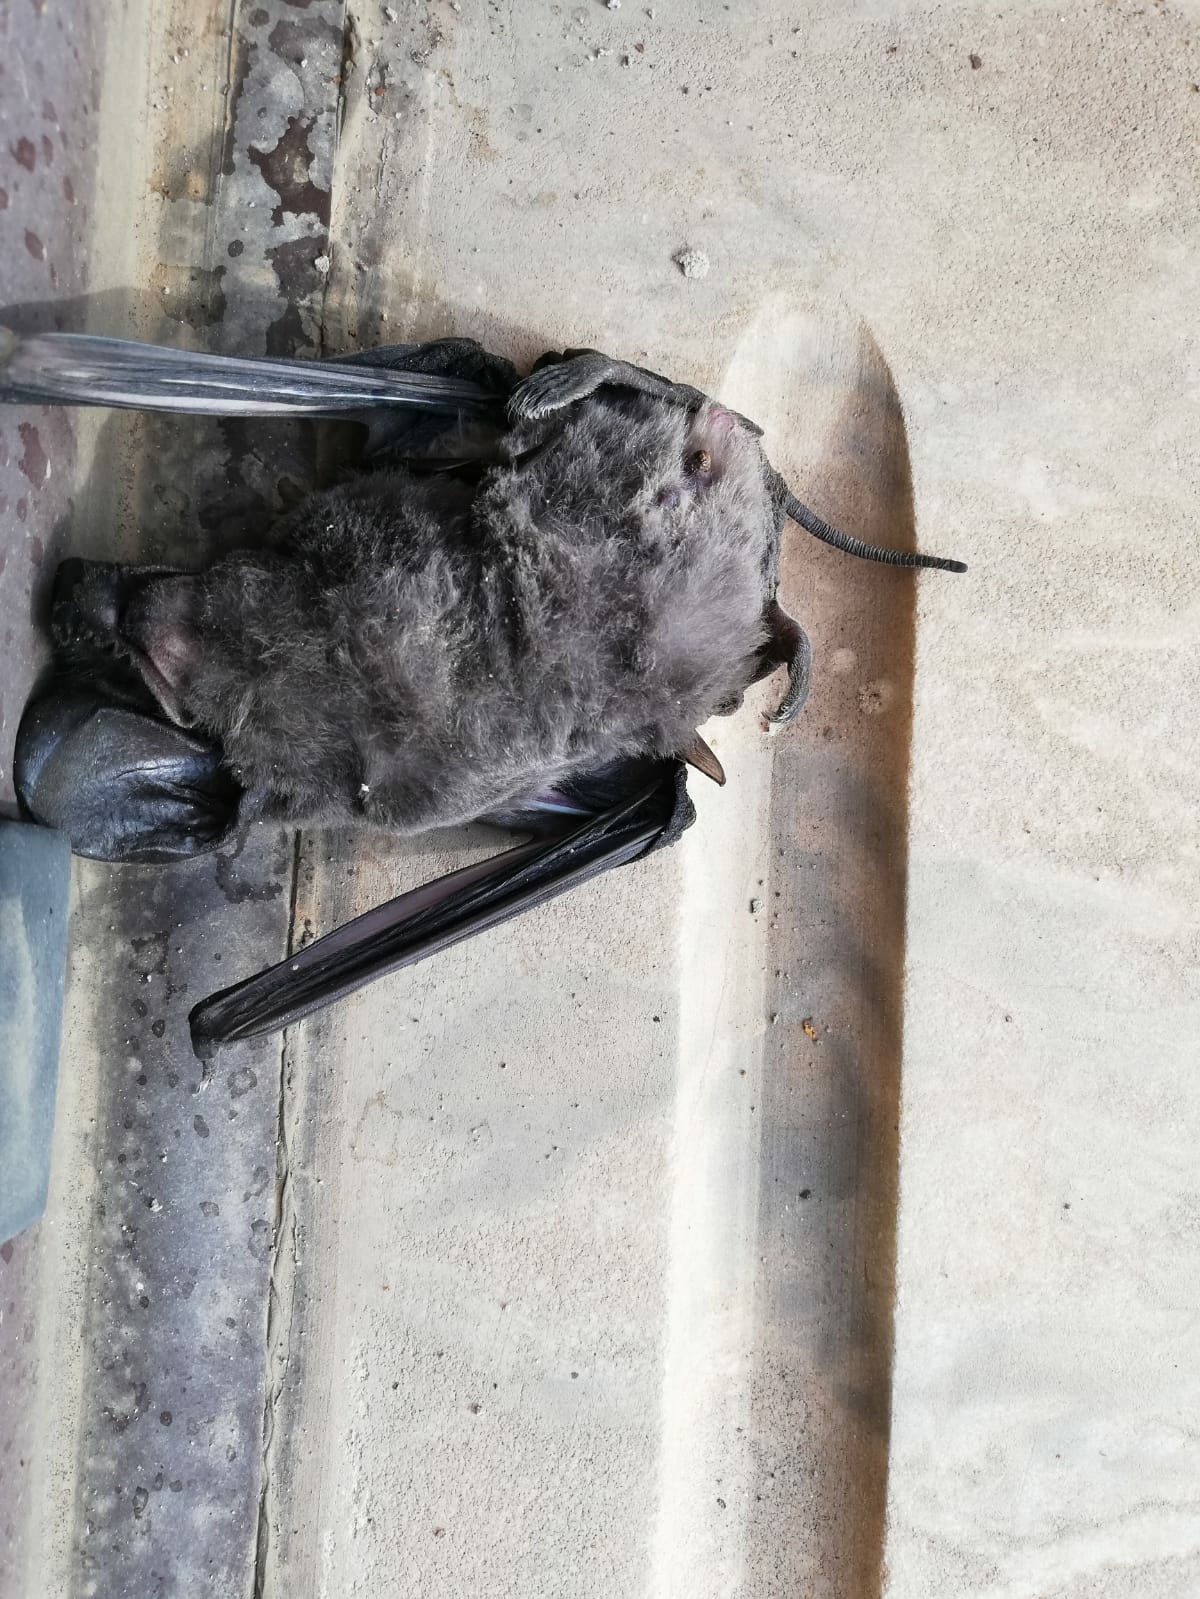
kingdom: Animalia
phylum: Chordata
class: Mammalia
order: Chiroptera
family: Molossidae
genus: Tadarida
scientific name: Tadarida teniotis
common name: European free-tailed bat
